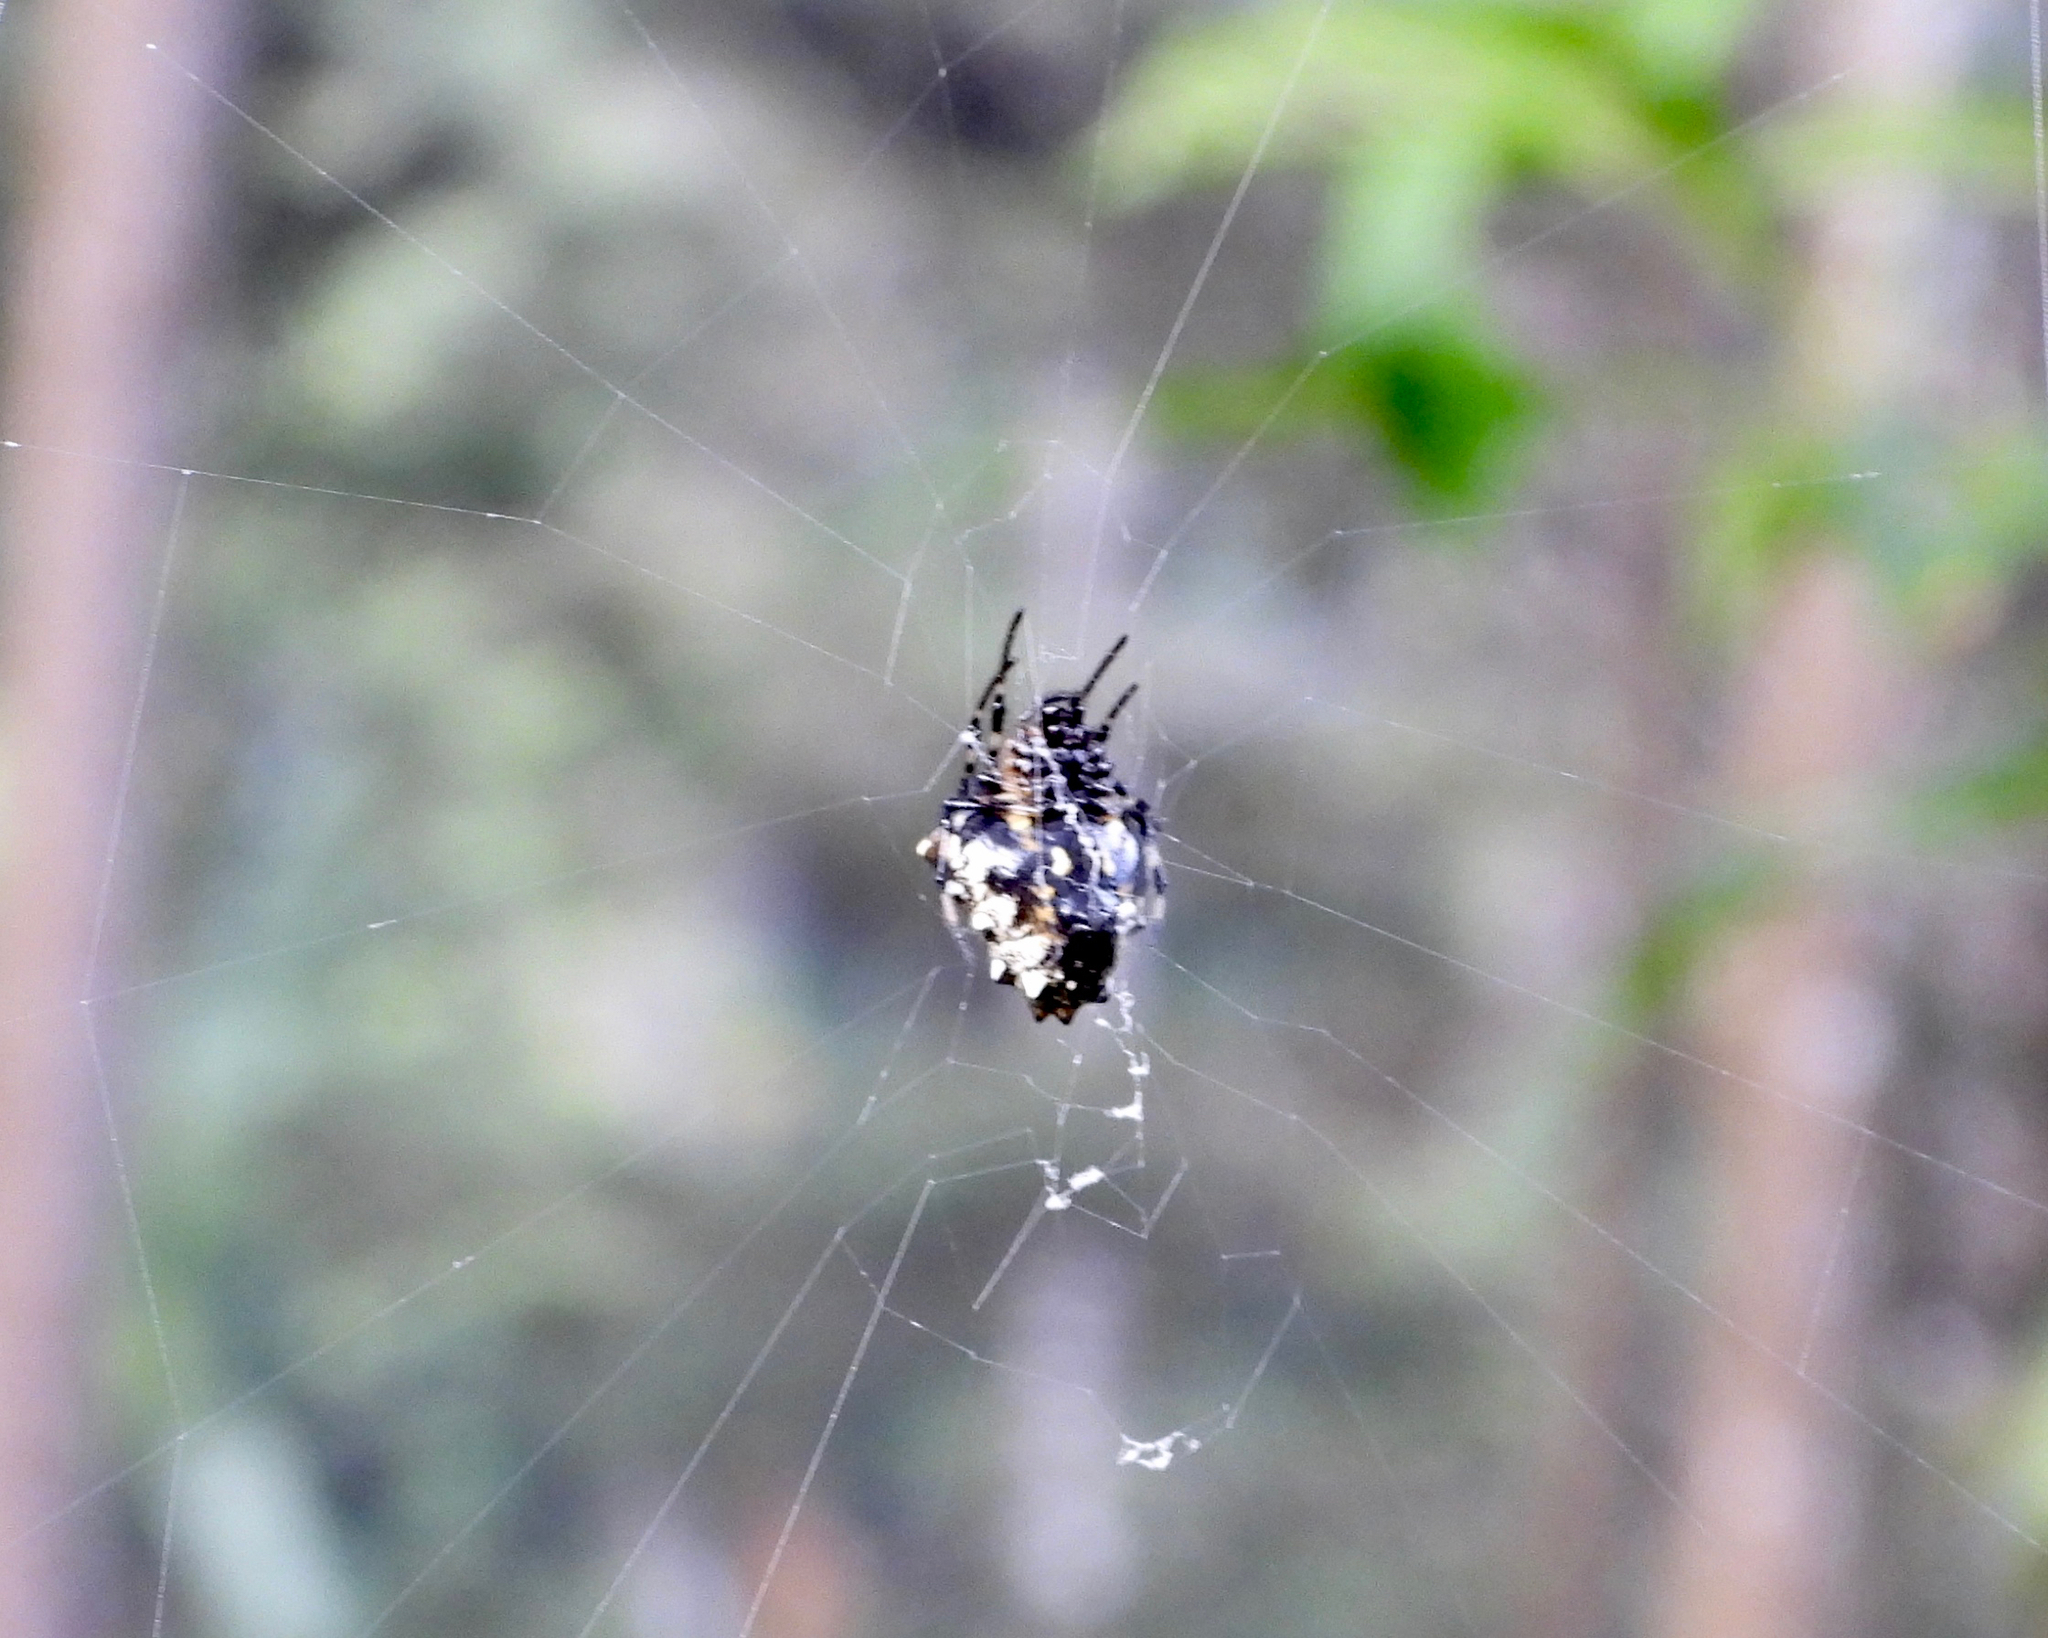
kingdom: Animalia
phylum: Arthropoda
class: Arachnida
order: Araneae
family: Araneidae
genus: Verrucosa
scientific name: Verrucosa arenata
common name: Orb weavers
